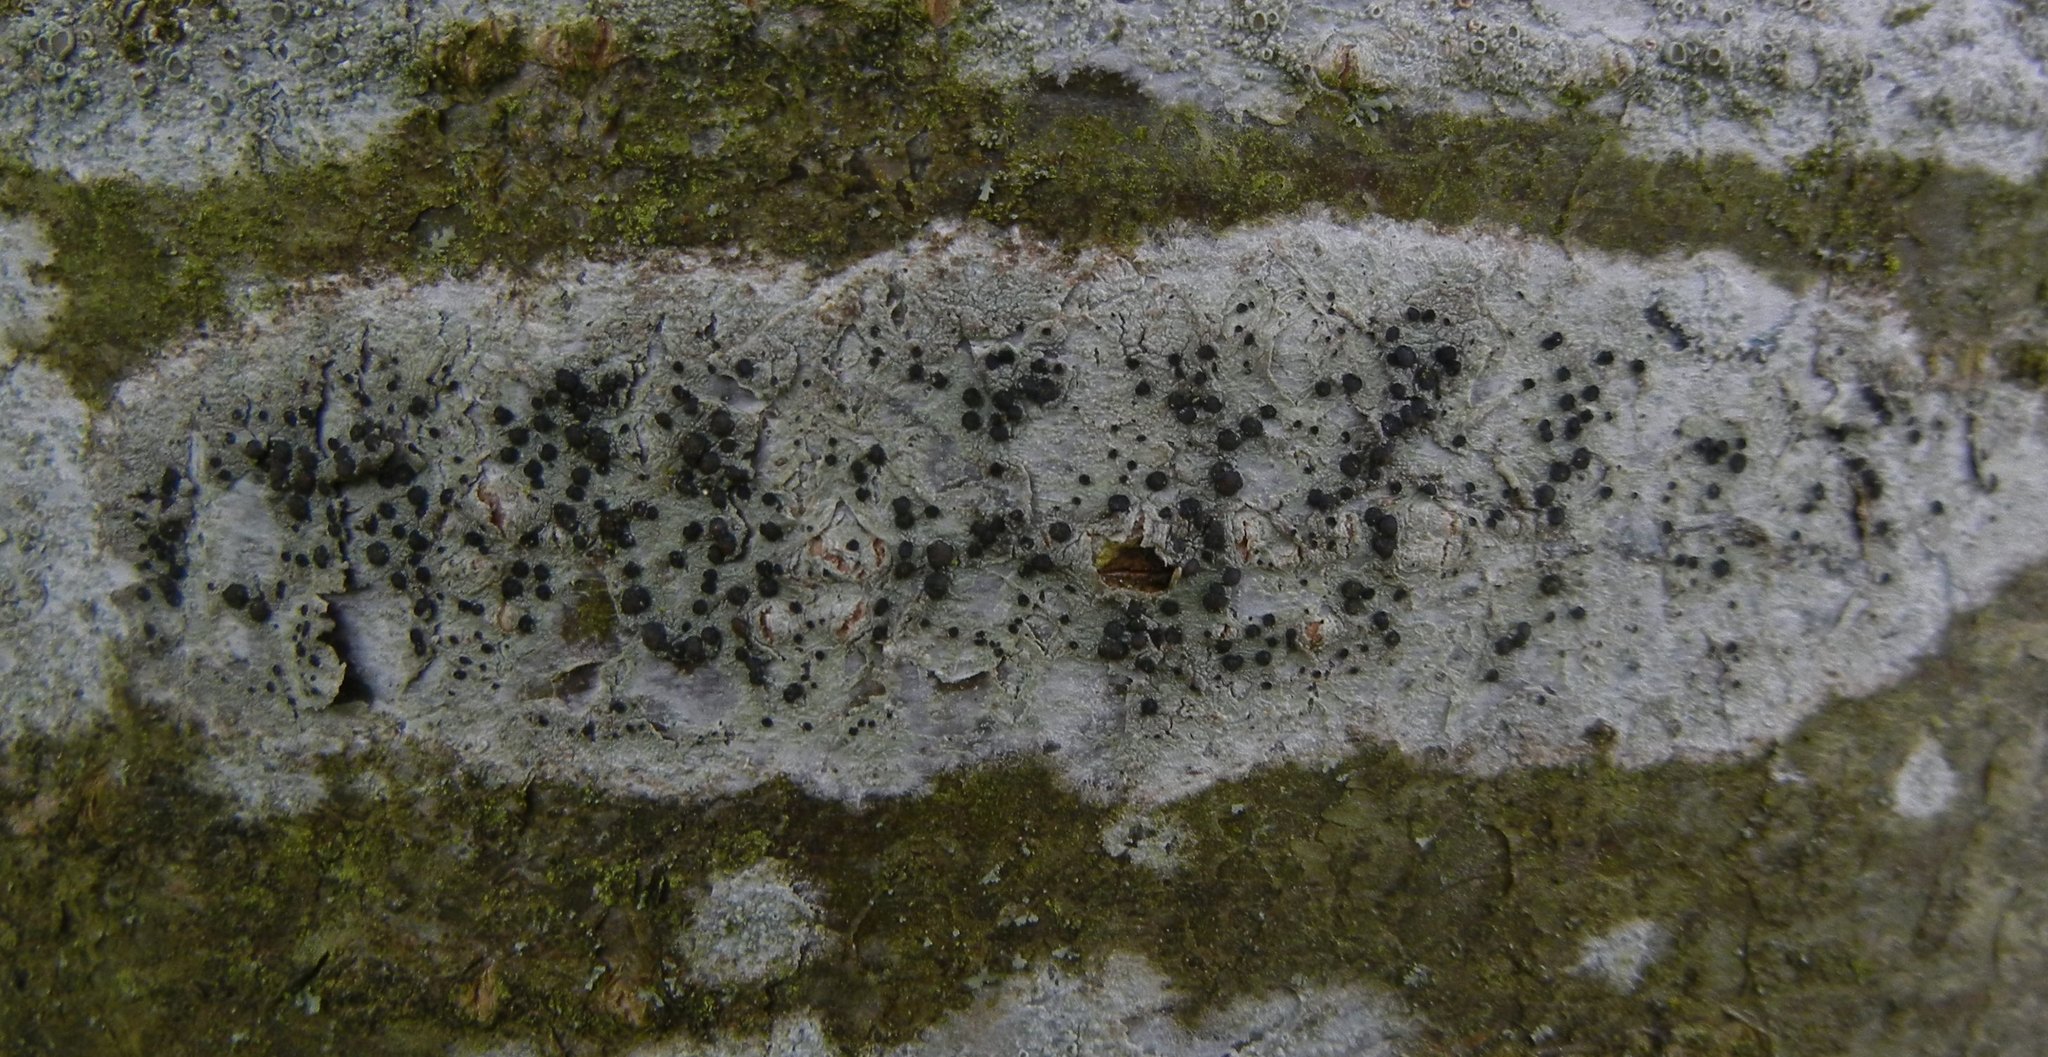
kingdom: Fungi
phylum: Ascomycota
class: Lecanoromycetes
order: Lecanorales
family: Lecanoraceae
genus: Lecidella
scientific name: Lecidella elaeochroma
